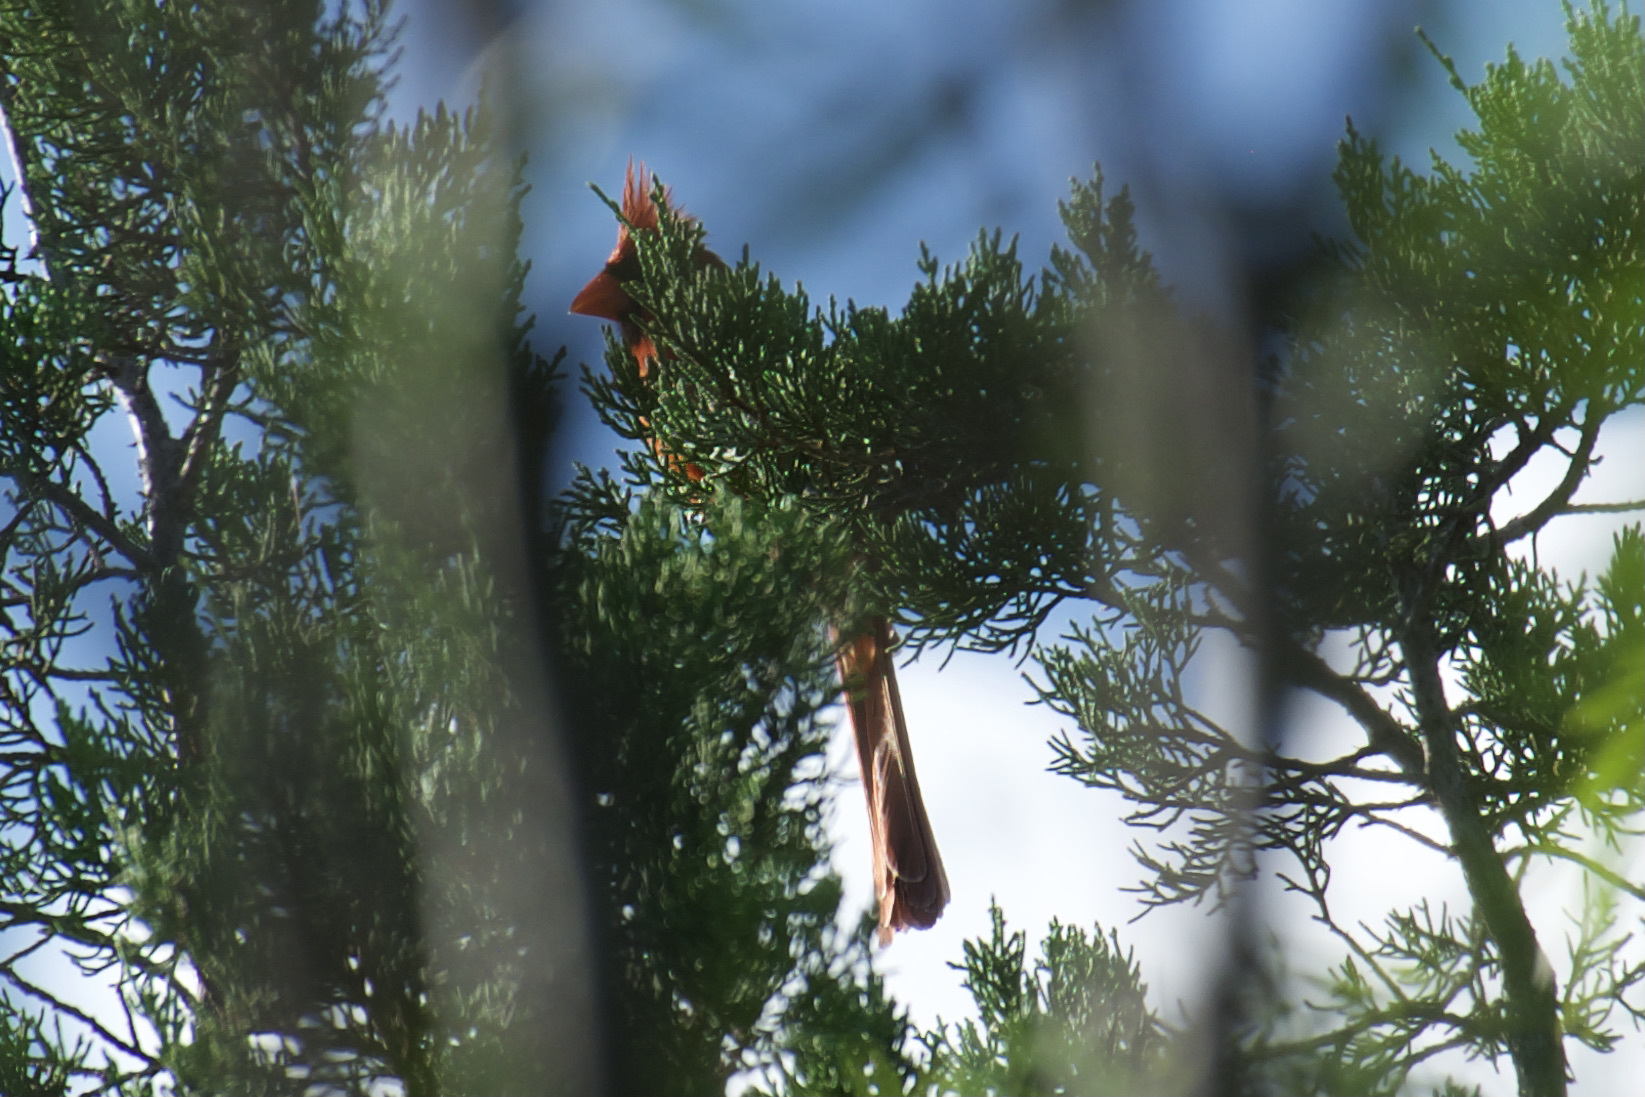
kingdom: Animalia
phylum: Chordata
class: Aves
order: Passeriformes
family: Cardinalidae
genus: Cardinalis
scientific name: Cardinalis cardinalis
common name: Northern cardinal
